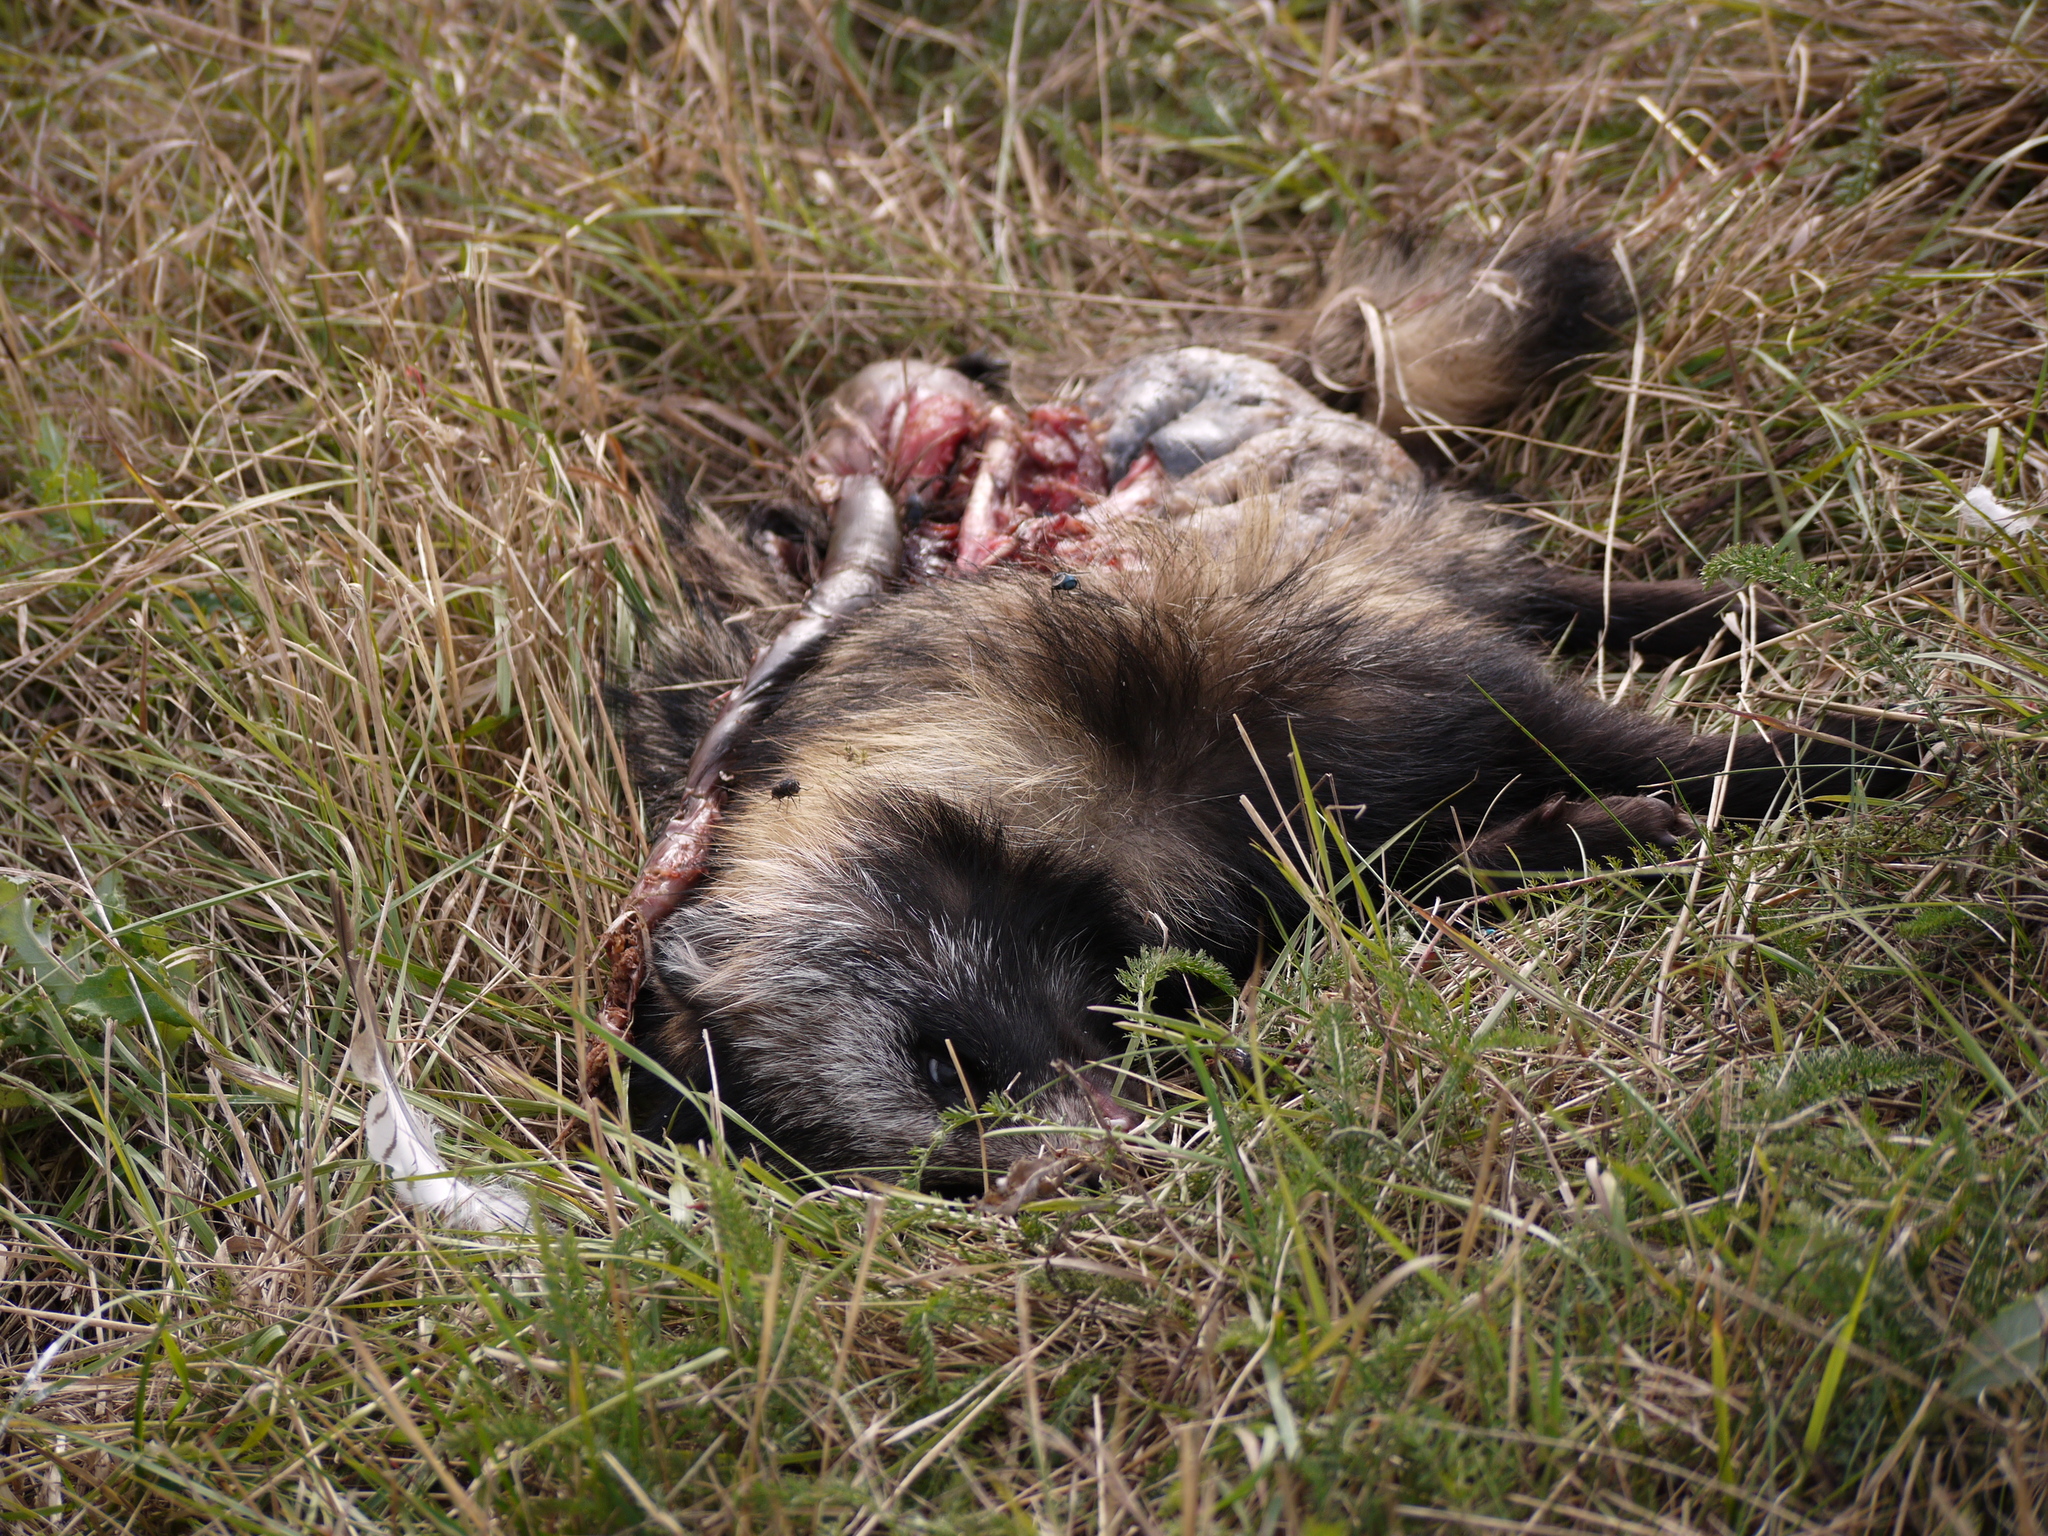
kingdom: Animalia
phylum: Chordata
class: Mammalia
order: Carnivora
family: Canidae
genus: Nyctereutes
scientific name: Nyctereutes procyonoides
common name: Raccoon dog
